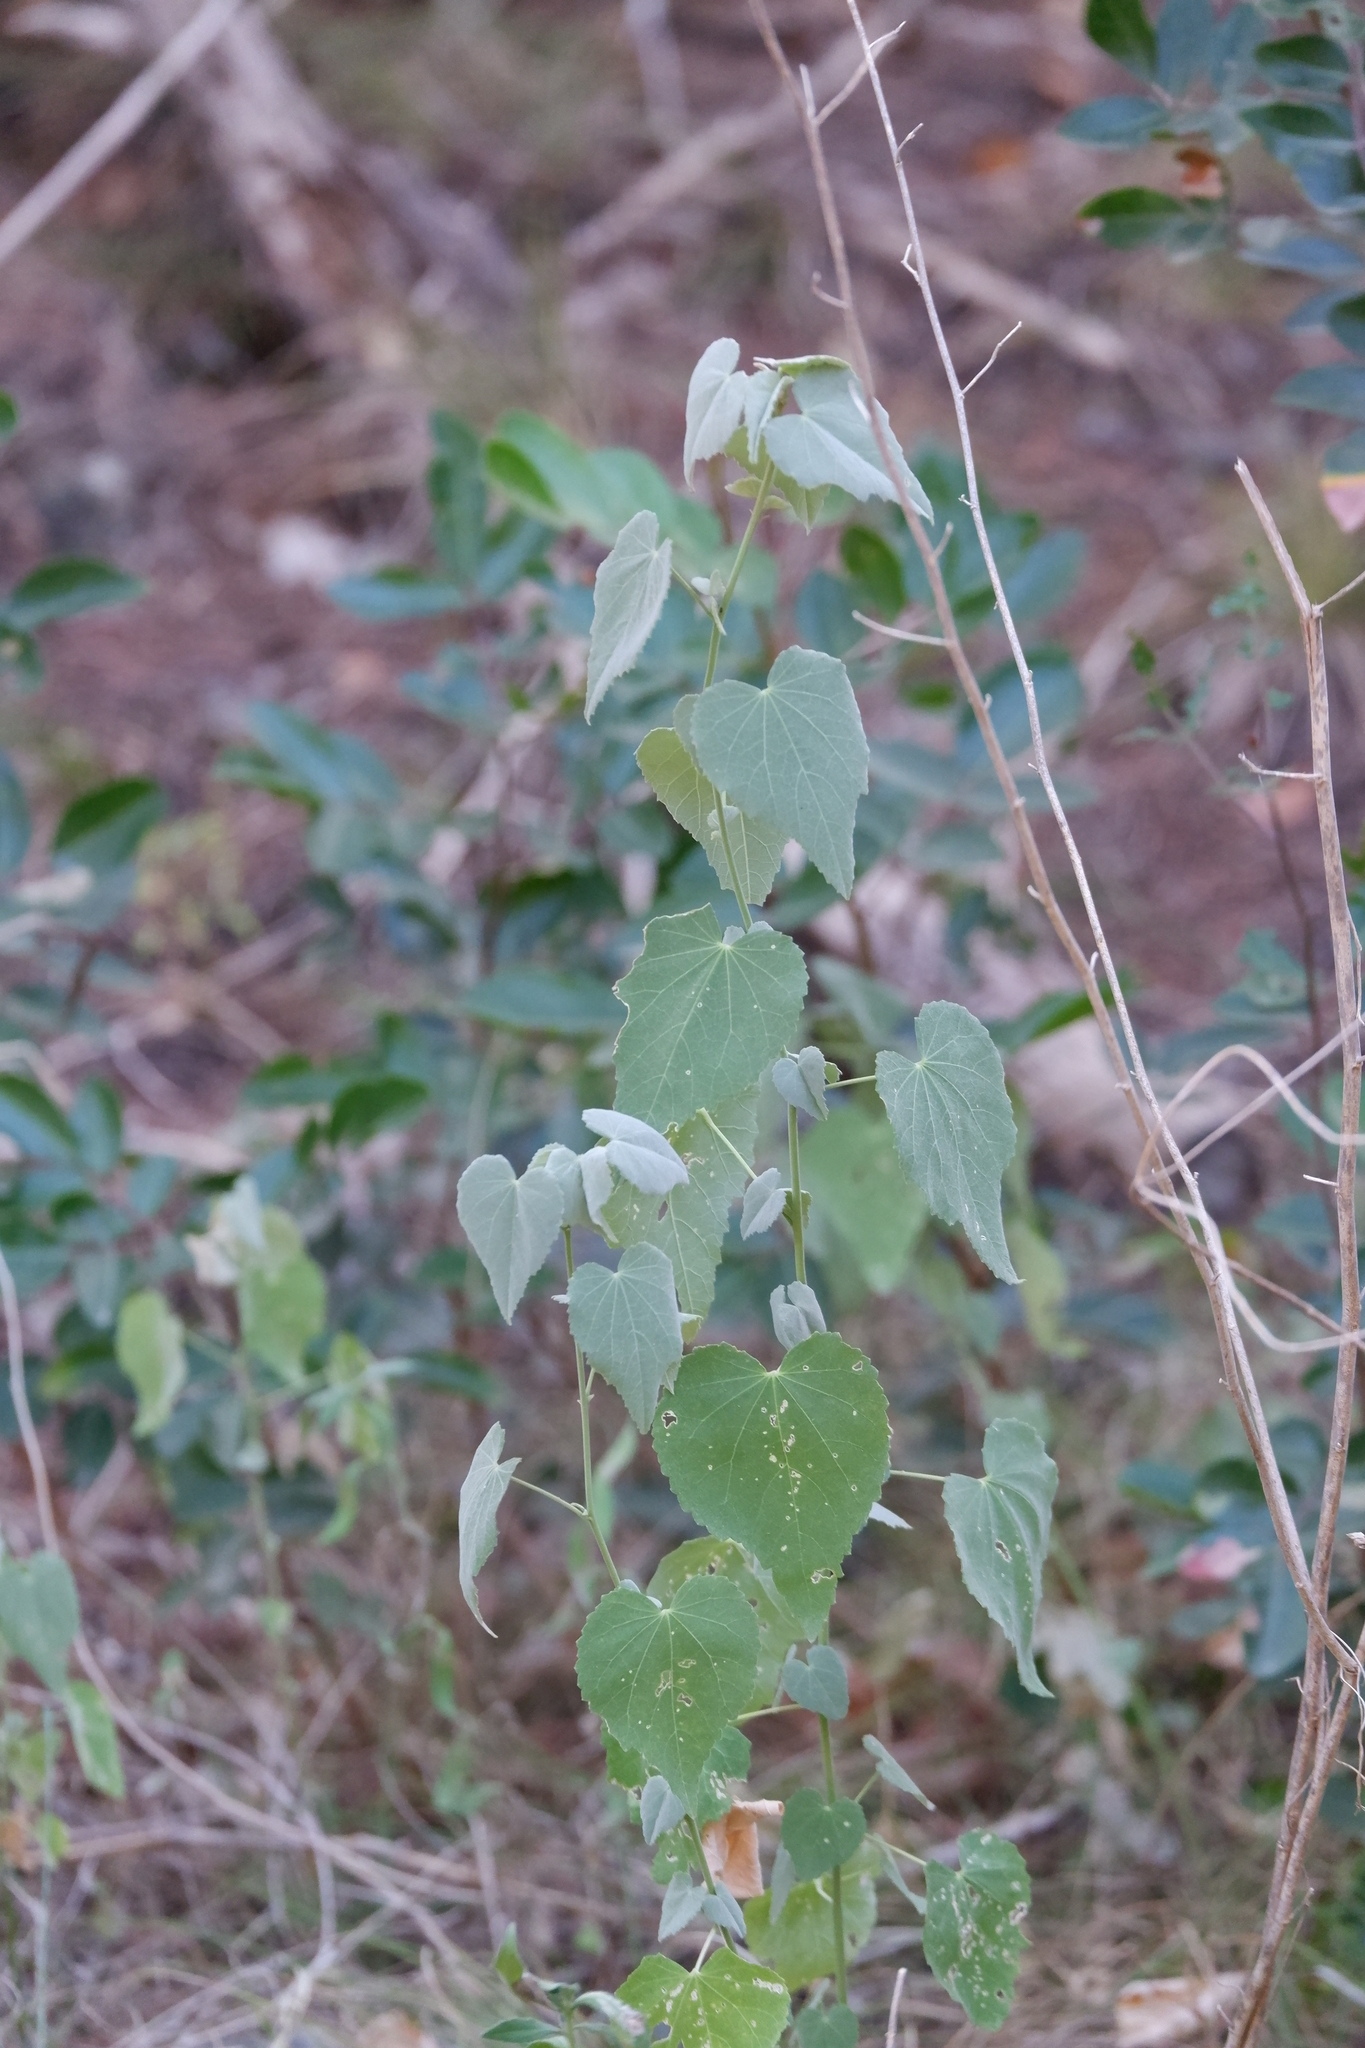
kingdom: Plantae
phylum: Tracheophyta
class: Magnoliopsida
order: Malvales
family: Malvaceae
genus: Allowissadula
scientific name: Allowissadula holosericea
